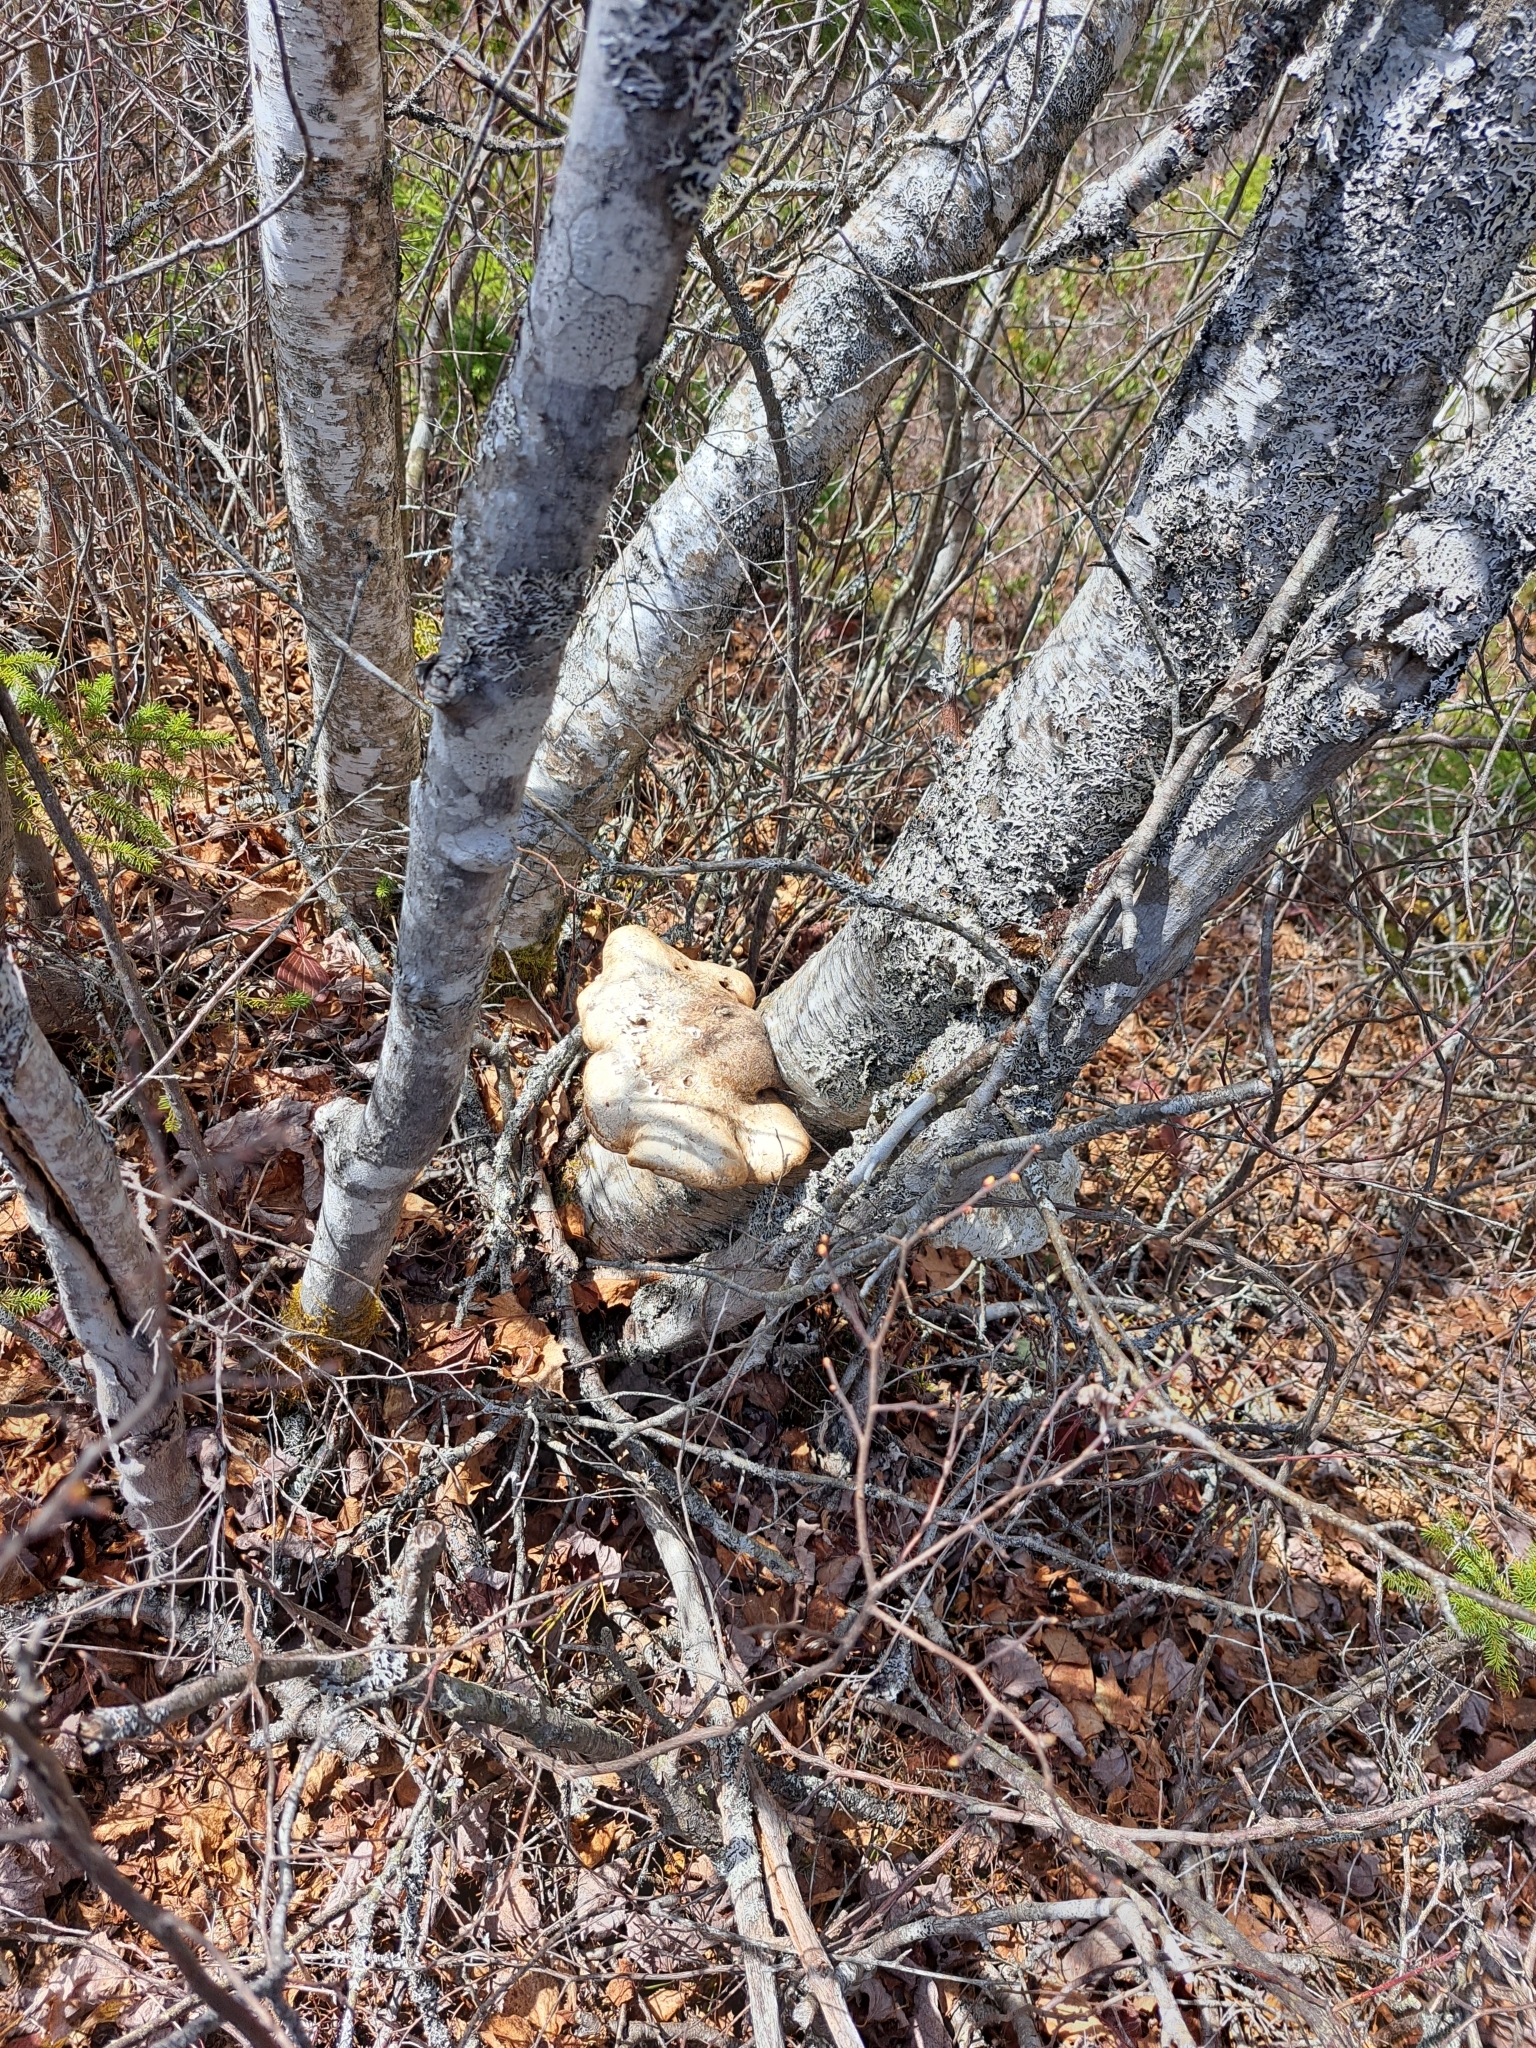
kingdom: Fungi
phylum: Basidiomycota
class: Agaricomycetes
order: Polyporales
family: Fomitopsidaceae
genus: Fomitopsis
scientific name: Fomitopsis betulina
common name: Birch polypore
